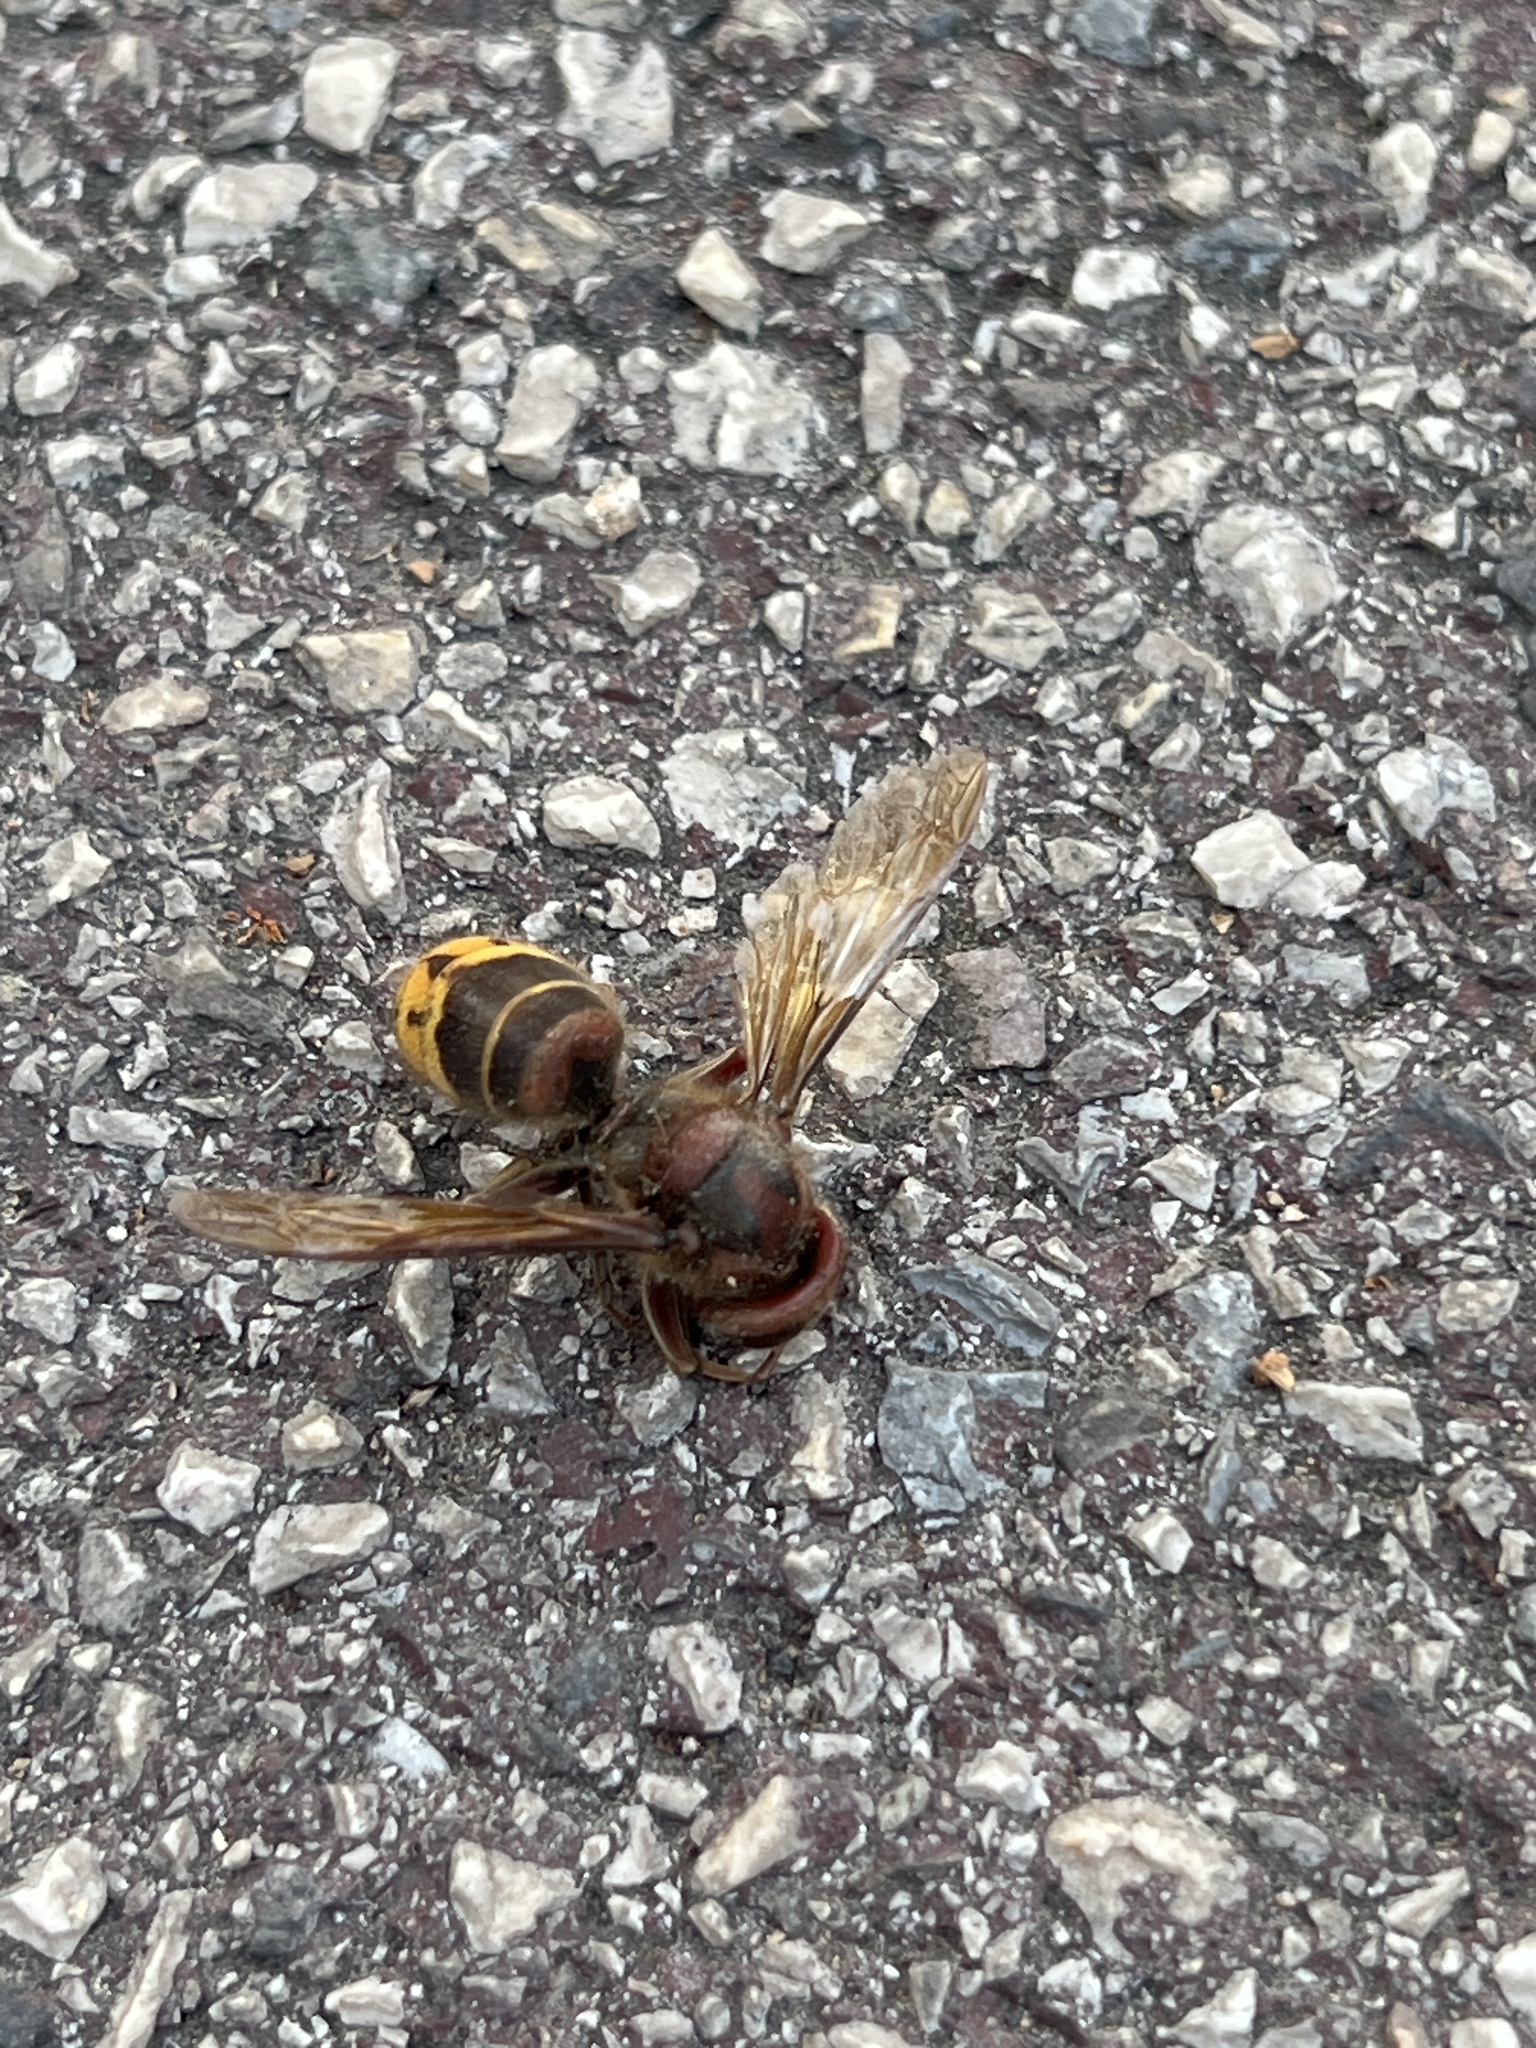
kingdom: Animalia
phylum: Arthropoda
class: Insecta
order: Hymenoptera
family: Vespidae
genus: Vespa
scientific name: Vespa crabro
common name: Hornet
